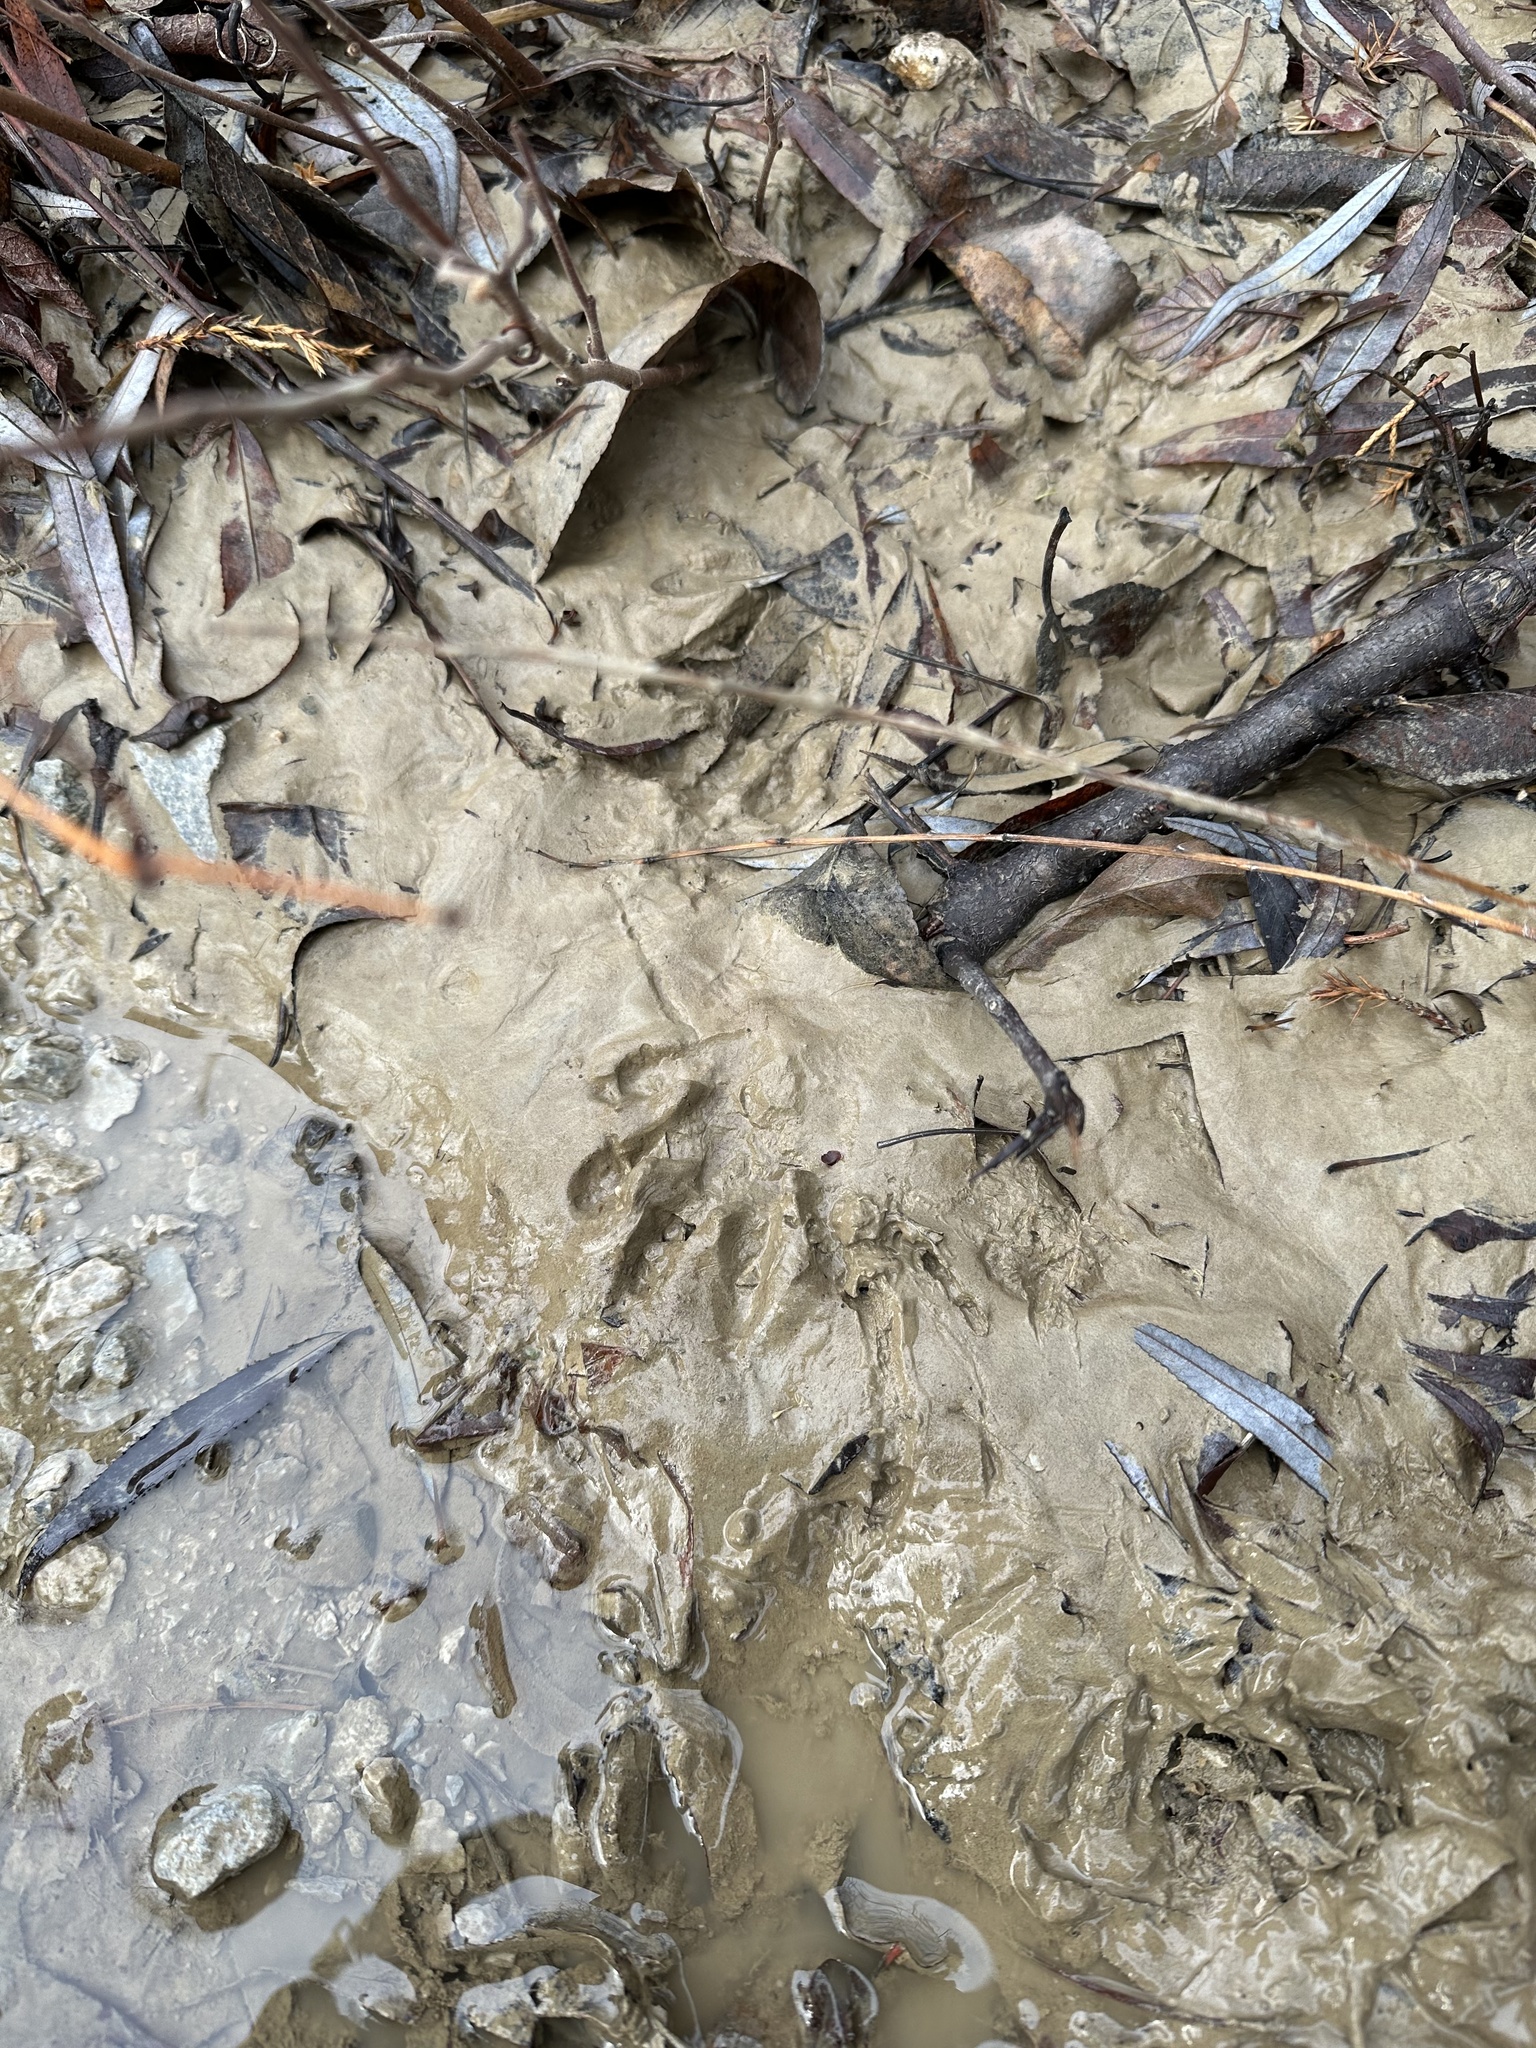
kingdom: Animalia
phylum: Chordata
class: Mammalia
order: Carnivora
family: Procyonidae
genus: Procyon
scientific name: Procyon lotor
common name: Raccoon
